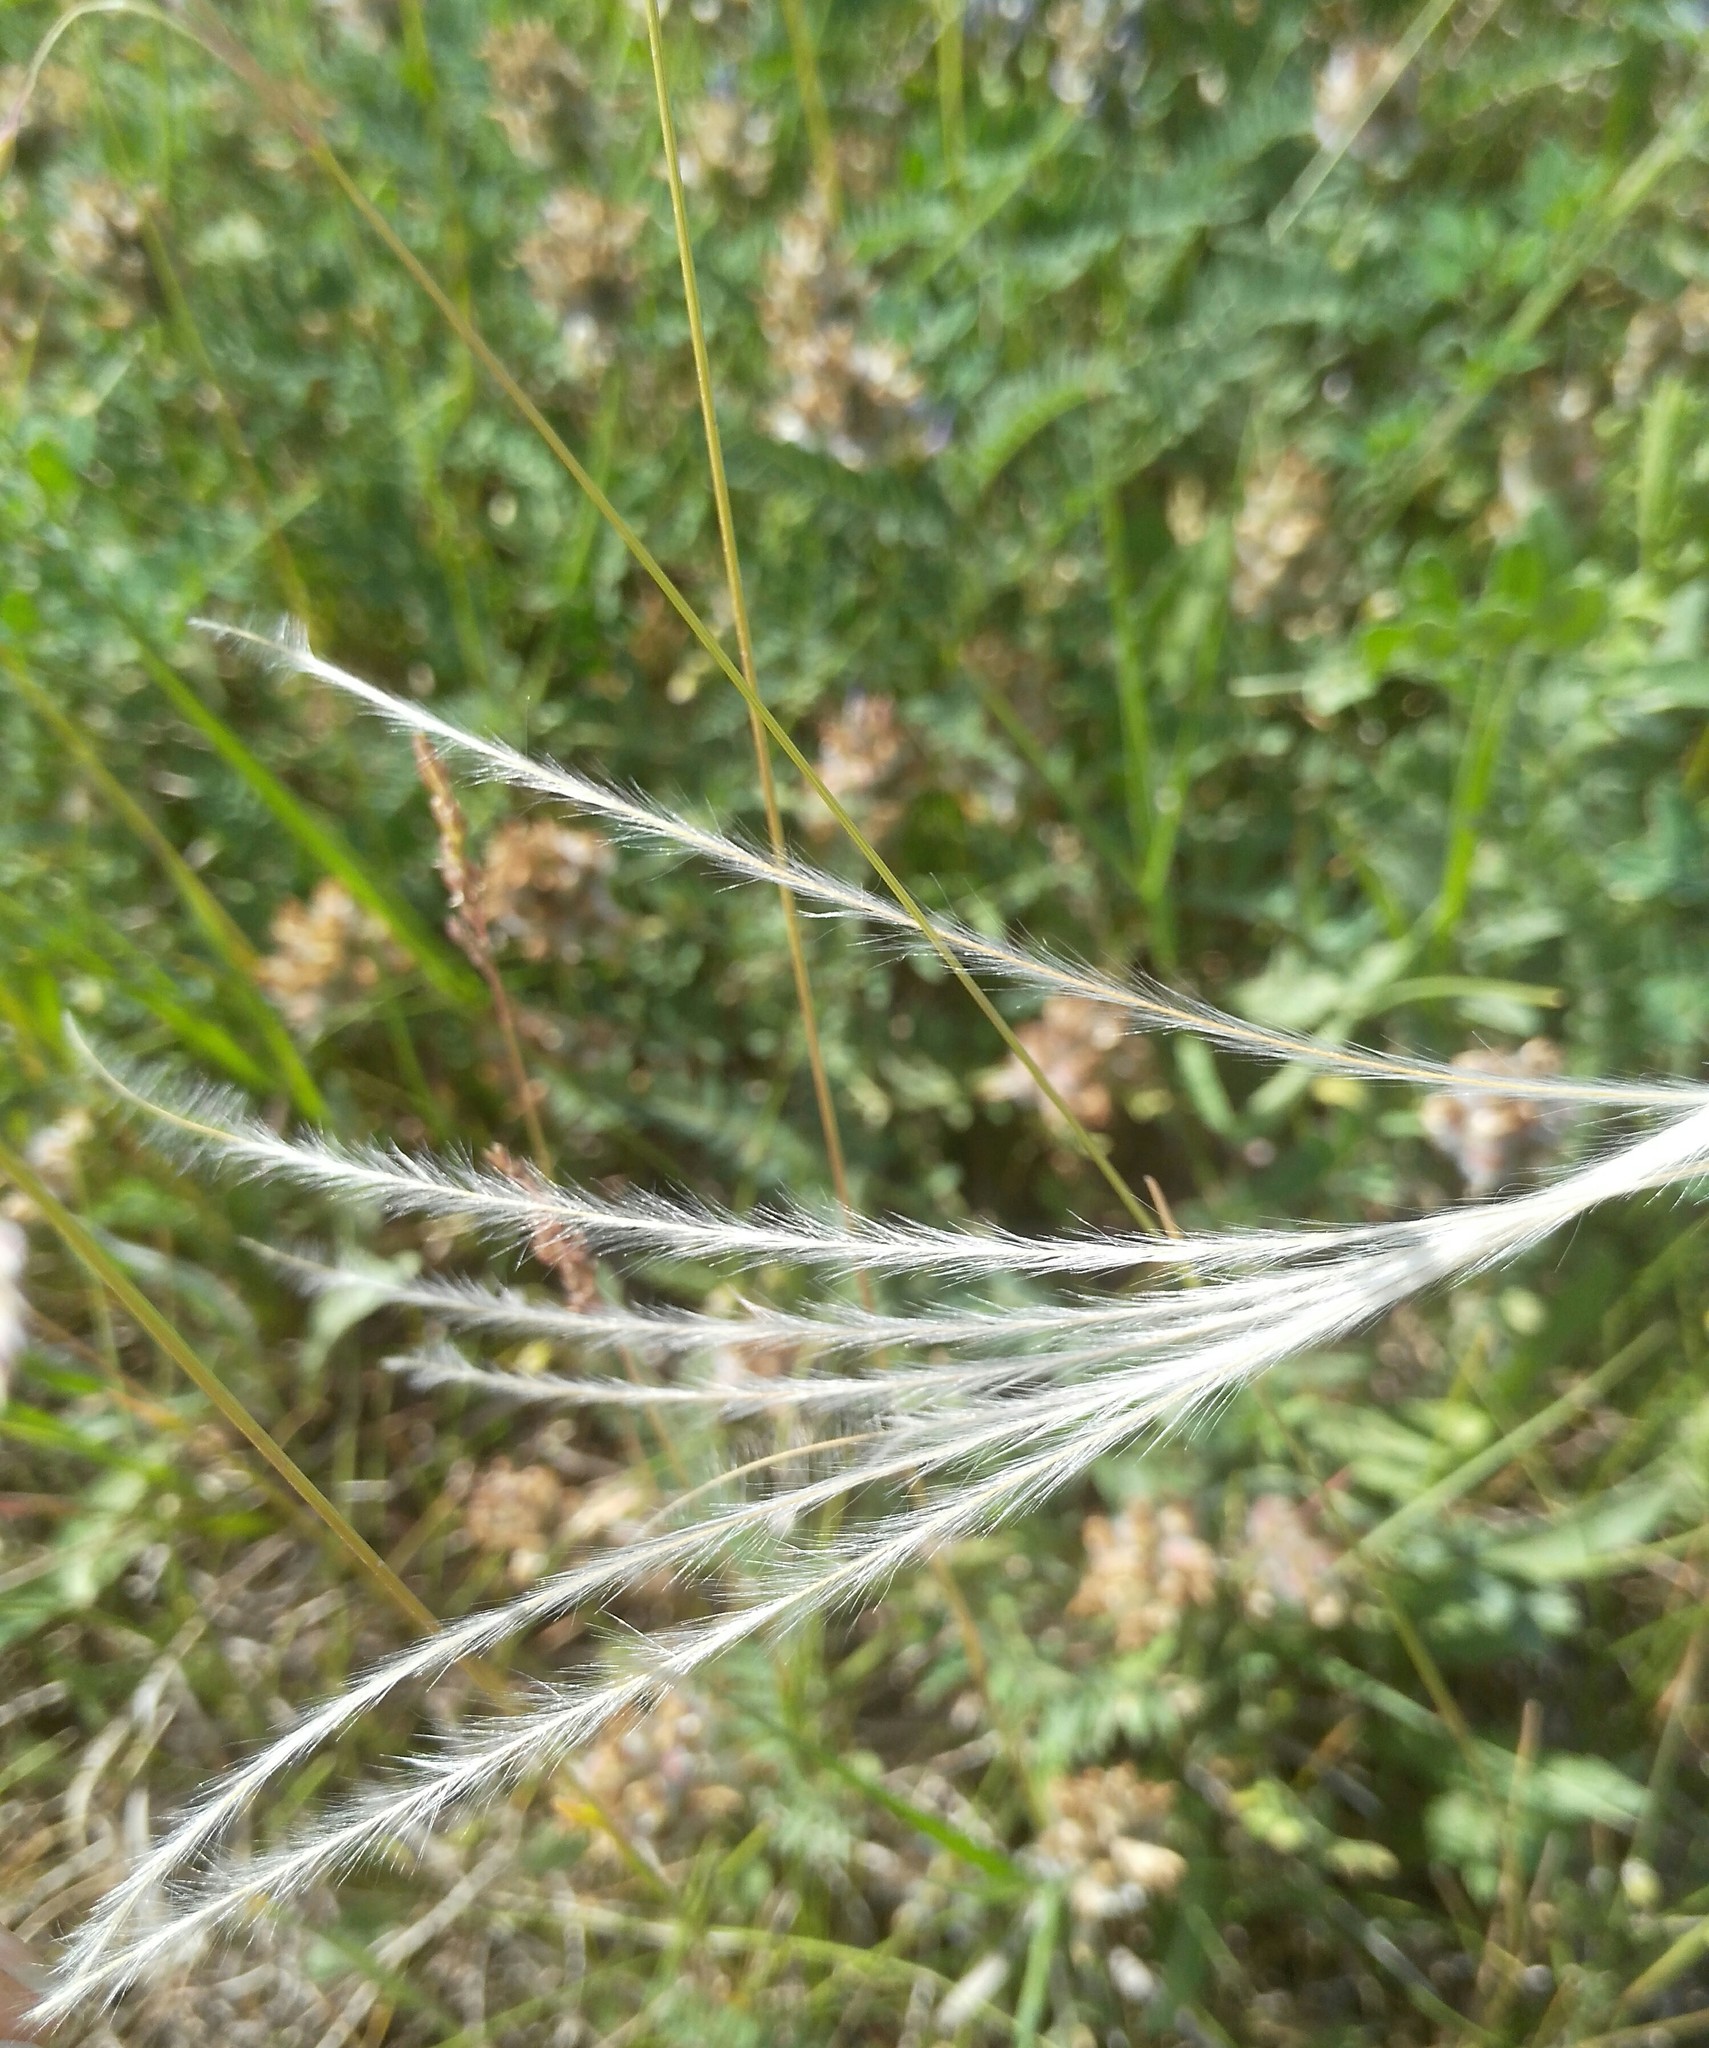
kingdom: Plantae
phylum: Tracheophyta
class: Liliopsida
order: Poales
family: Poaceae
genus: Stipa
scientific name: Stipa pennata
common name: European feather grass
